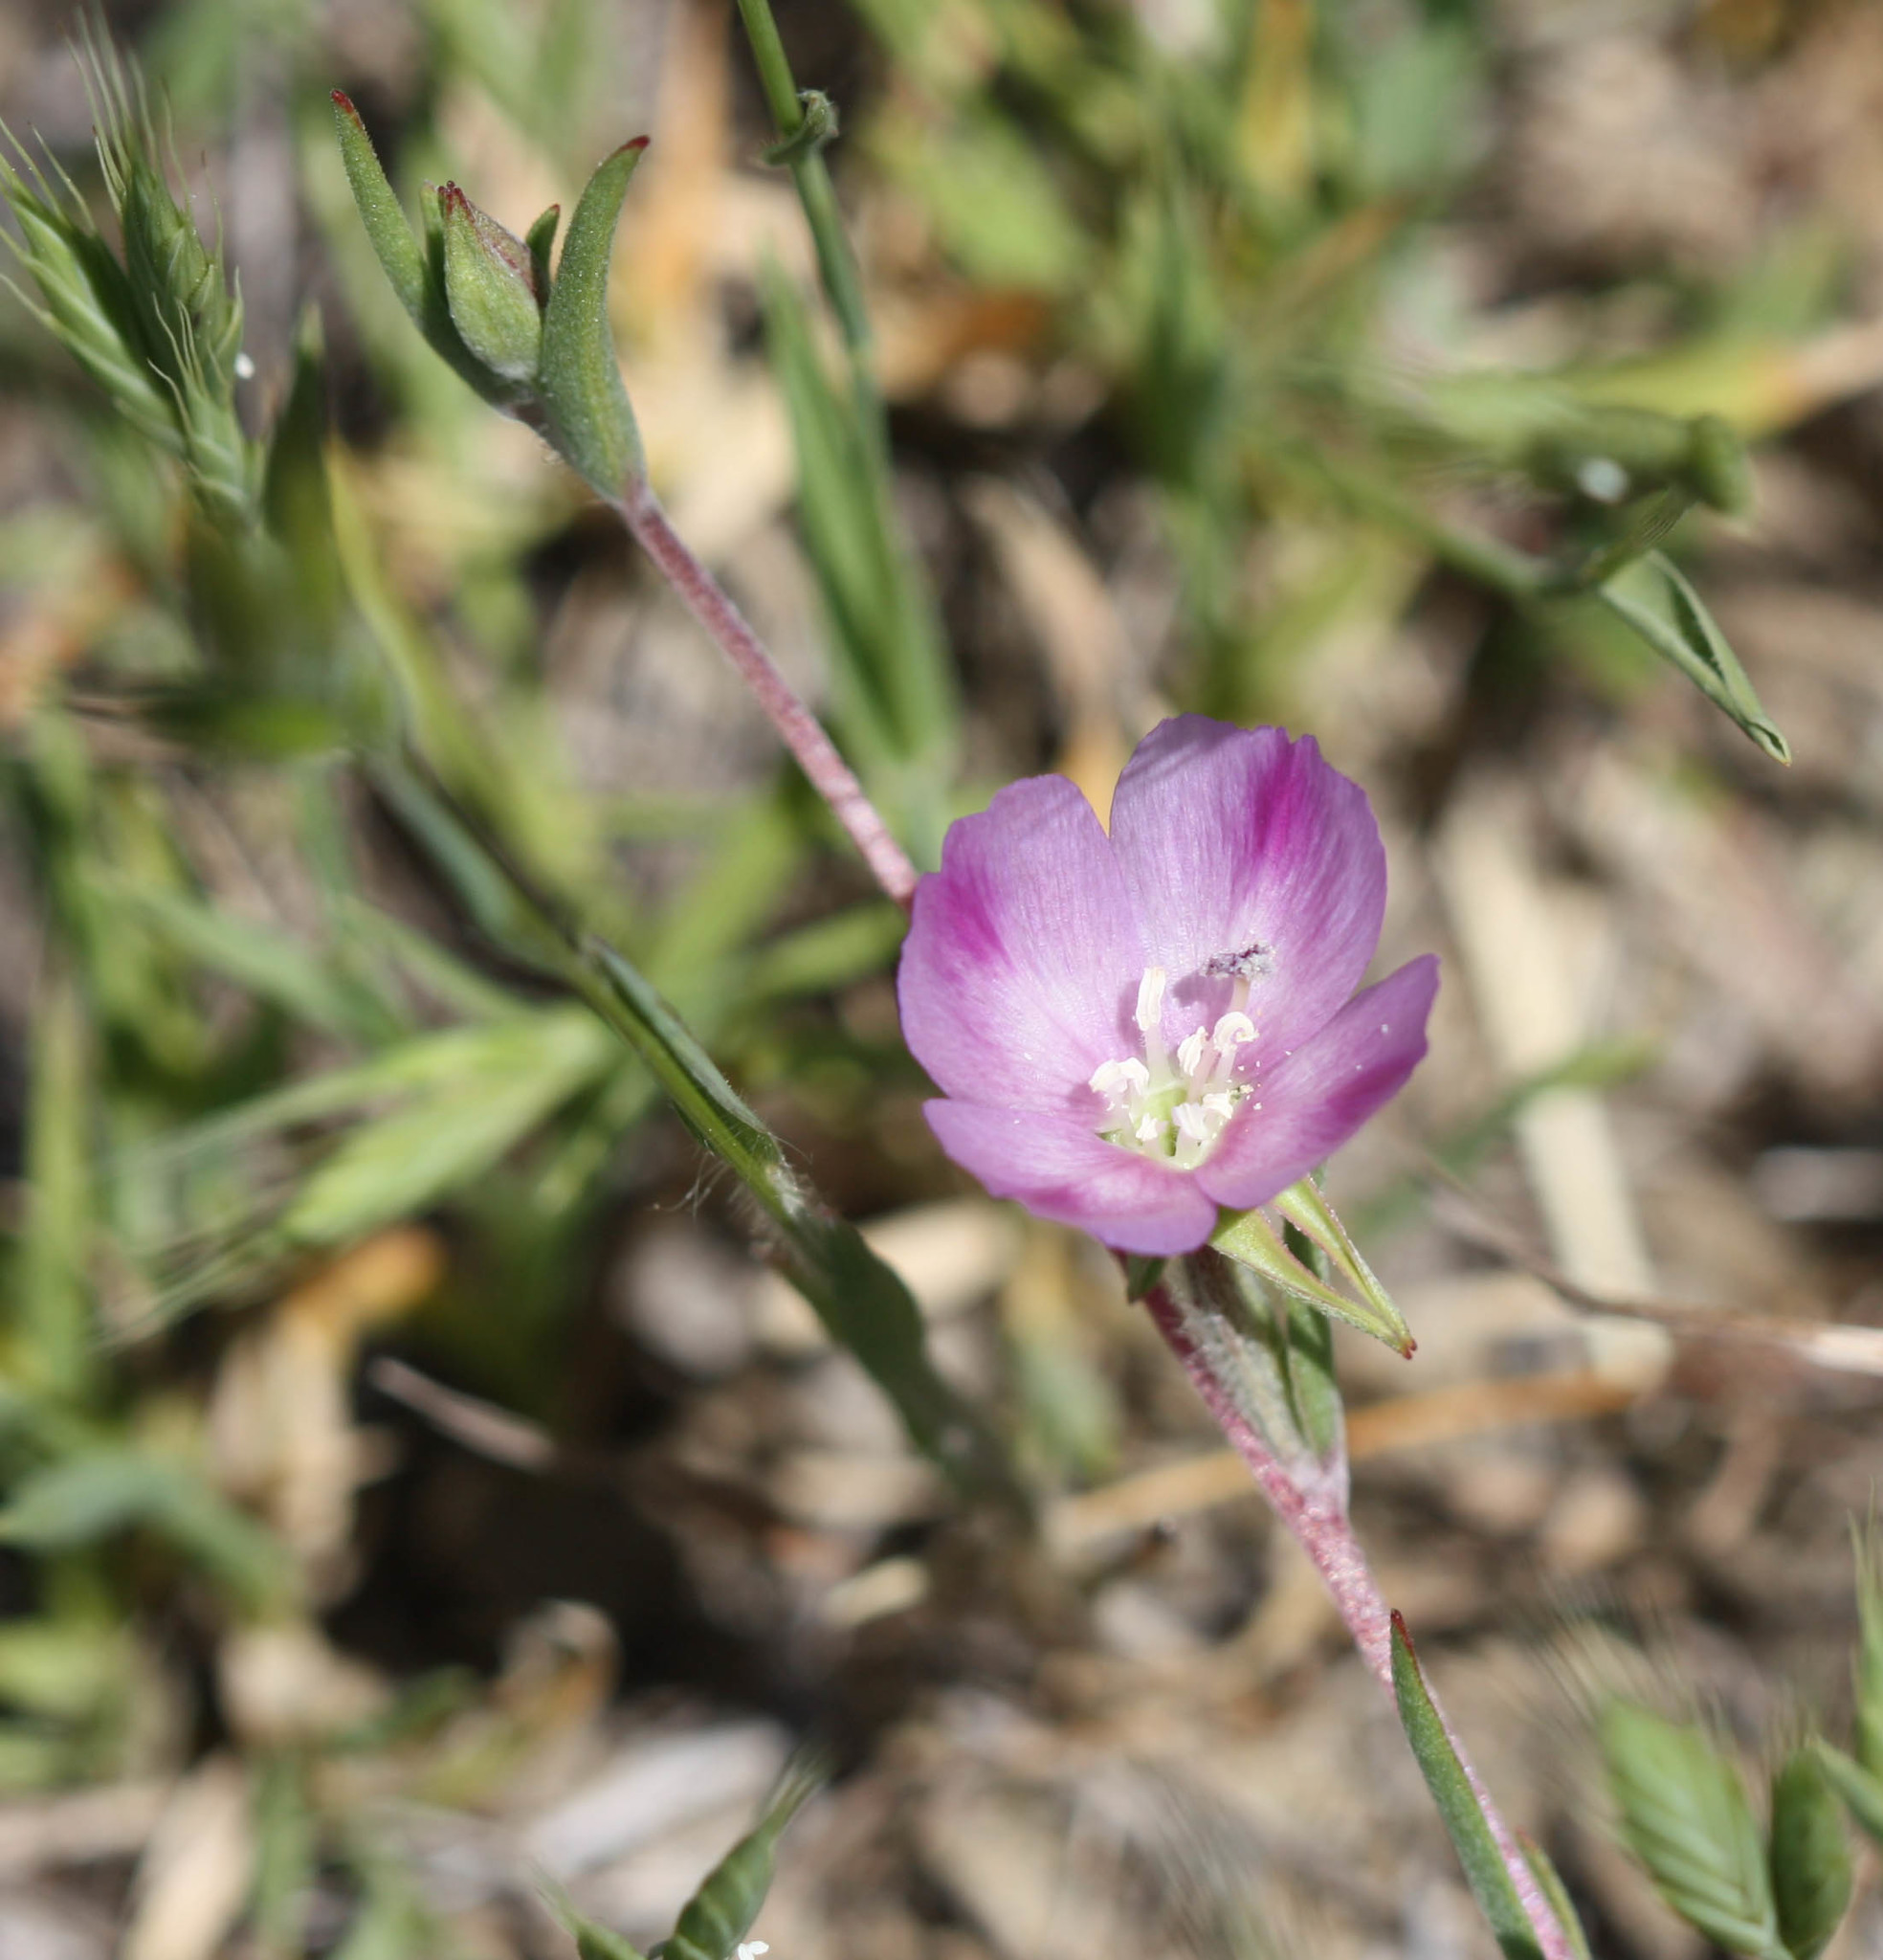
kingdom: Plantae
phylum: Tracheophyta
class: Magnoliopsida
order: Myrtales
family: Onagraceae
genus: Clarkia
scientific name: Clarkia purpurea
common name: Purple clarkia
